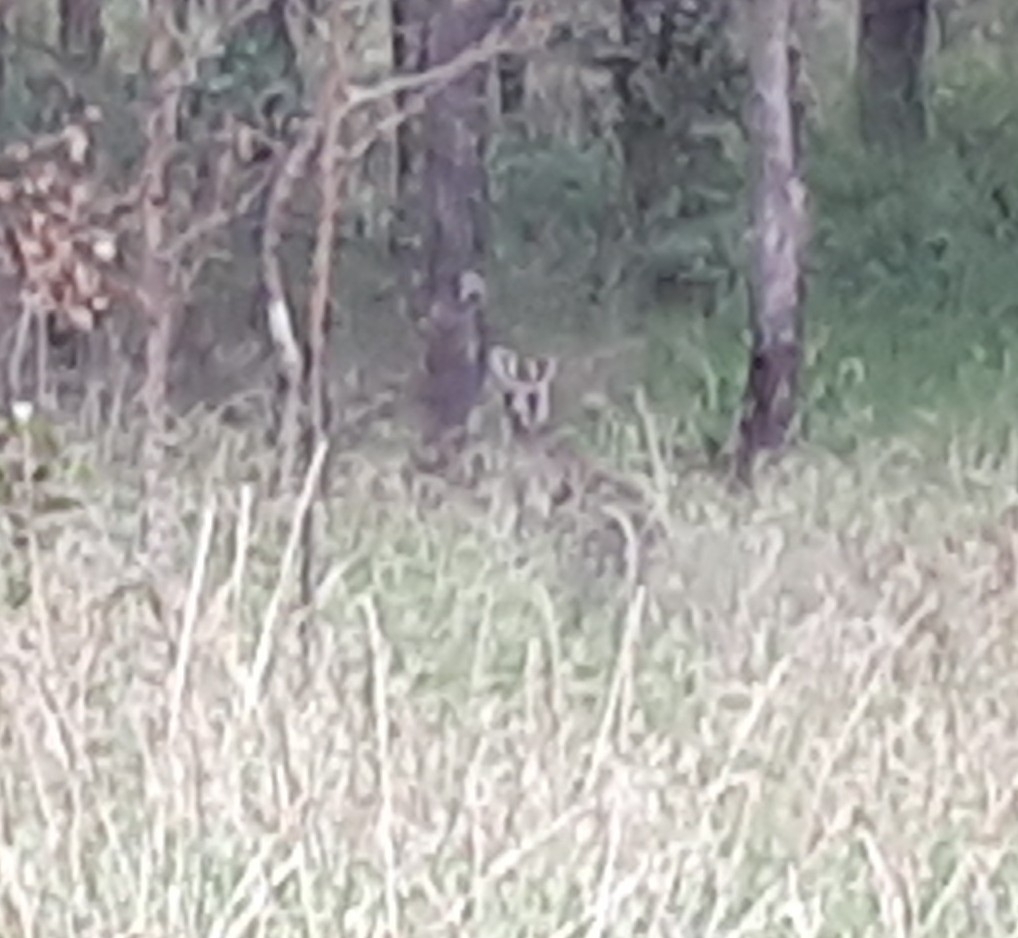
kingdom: Animalia
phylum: Chordata
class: Mammalia
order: Diprotodontia
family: Macropodidae
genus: Macropus
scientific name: Macropus giganteus
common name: Eastern grey kangaroo
